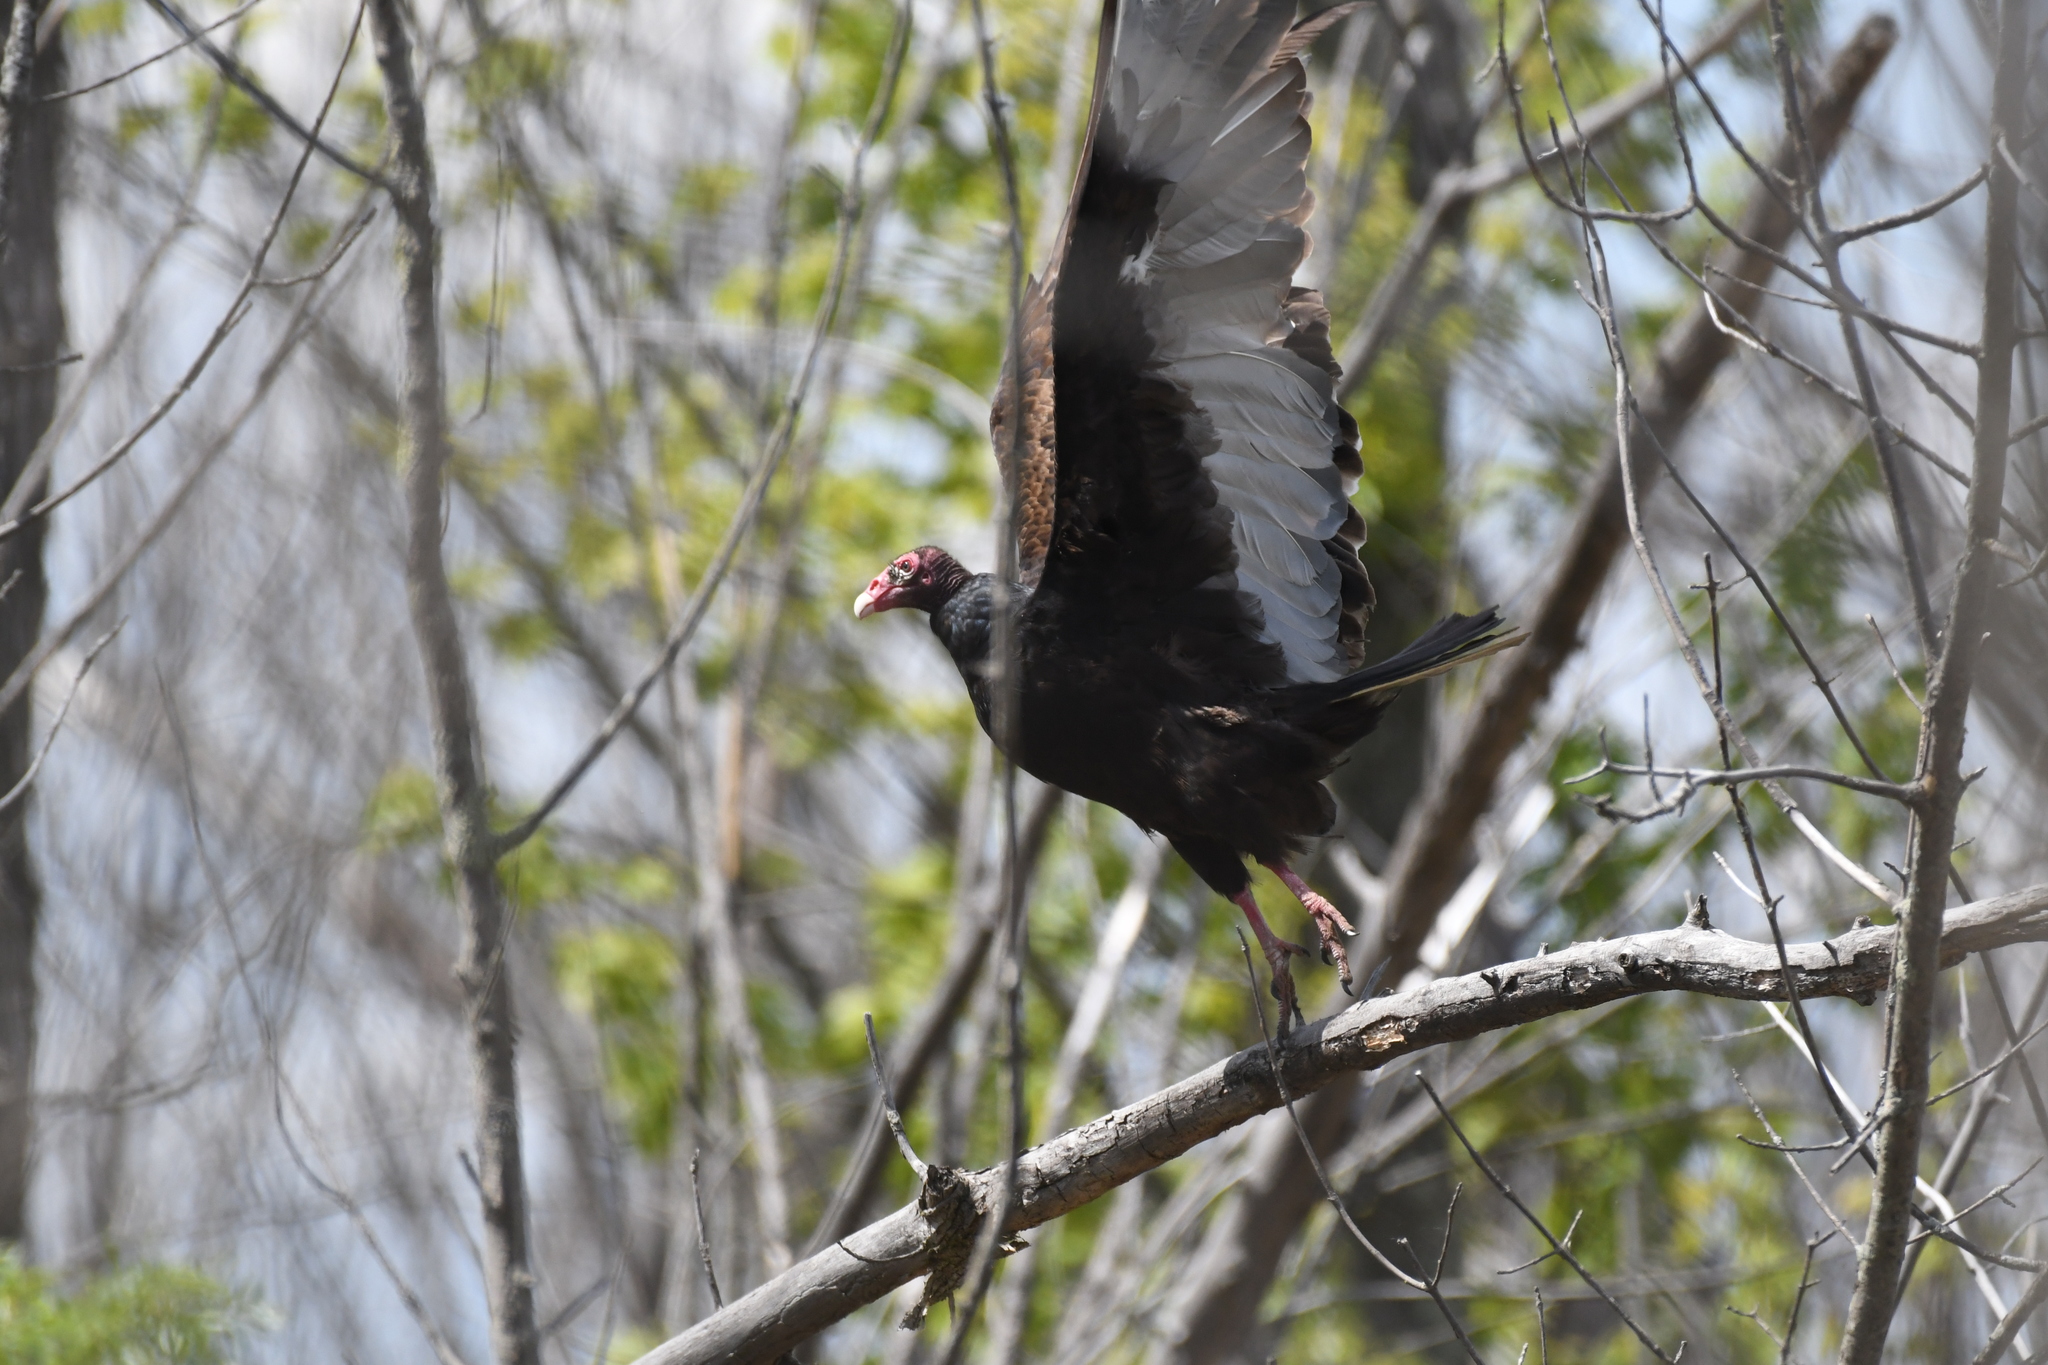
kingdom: Animalia
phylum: Chordata
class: Aves
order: Accipitriformes
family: Cathartidae
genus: Cathartes
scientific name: Cathartes aura
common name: Turkey vulture
